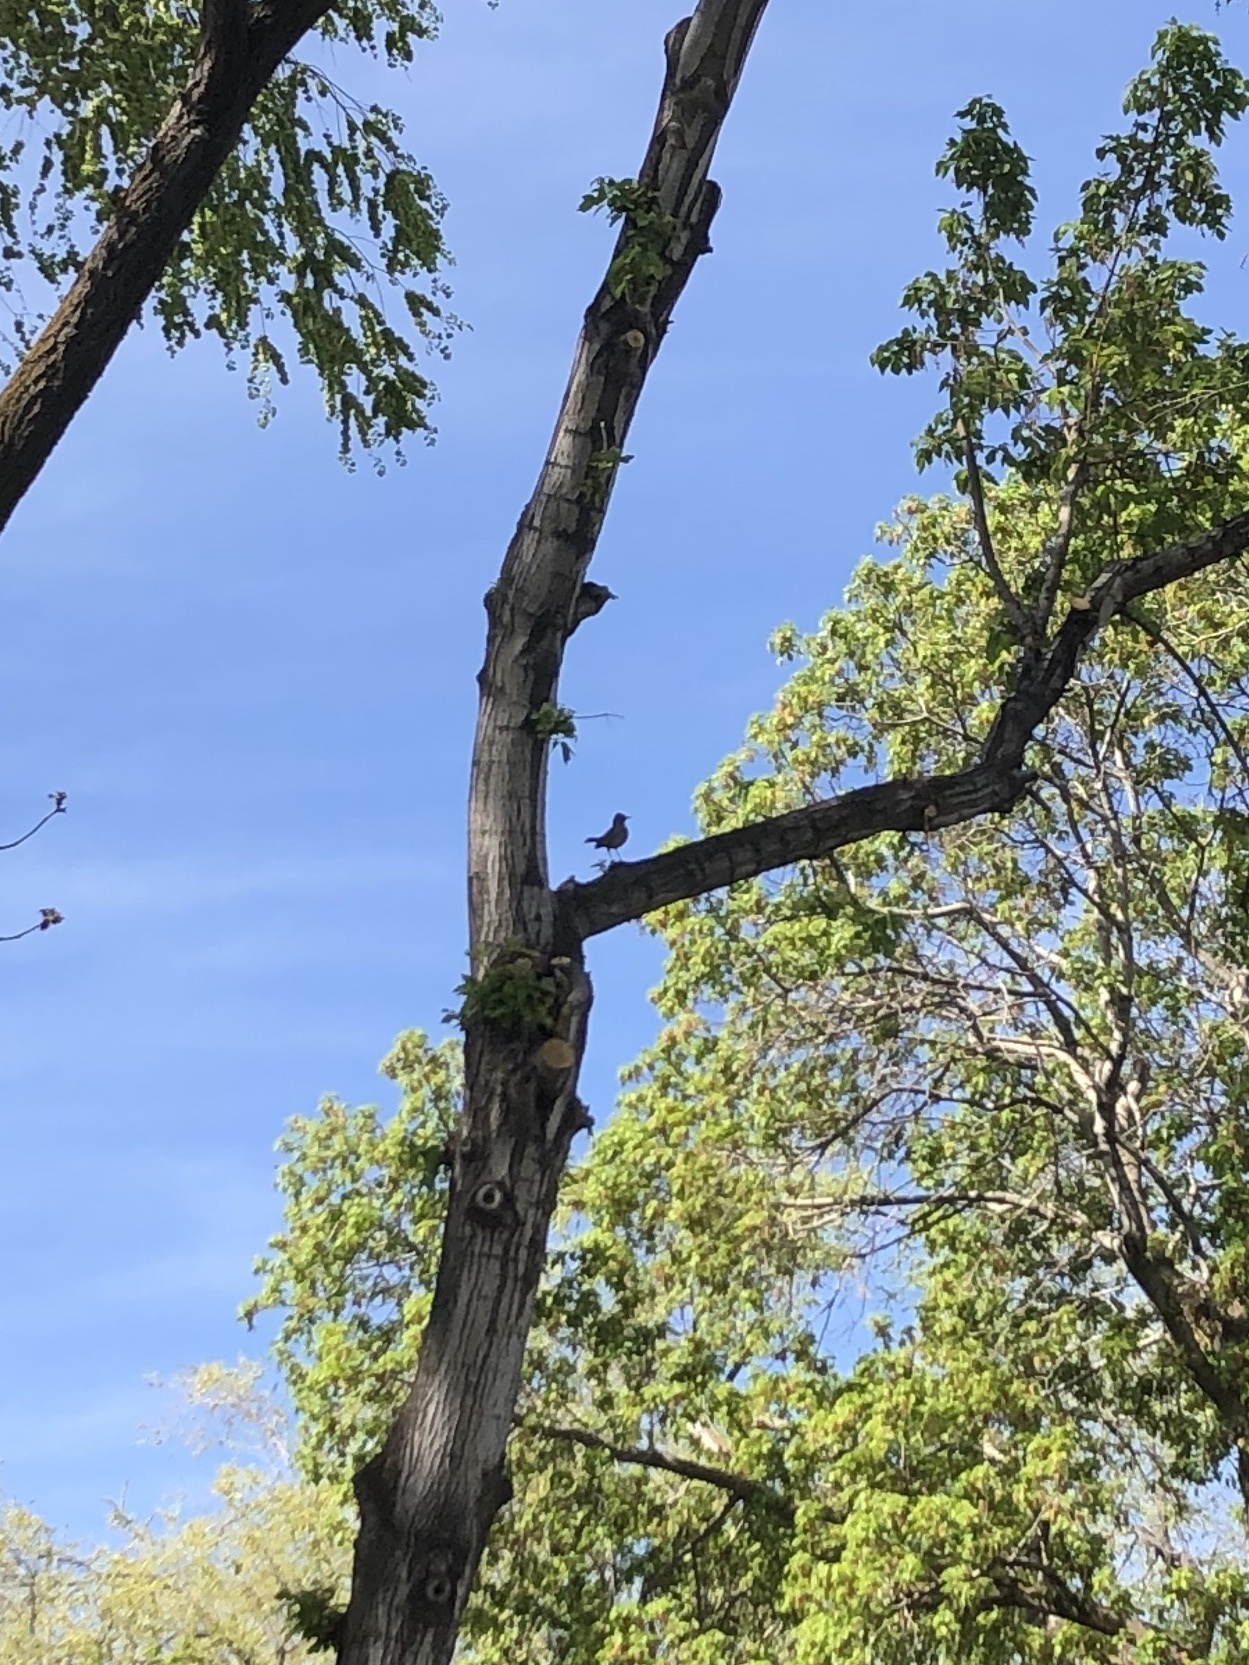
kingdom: Animalia
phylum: Chordata
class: Aves
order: Passeriformes
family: Turdidae
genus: Turdus
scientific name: Turdus migratorius
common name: American robin
